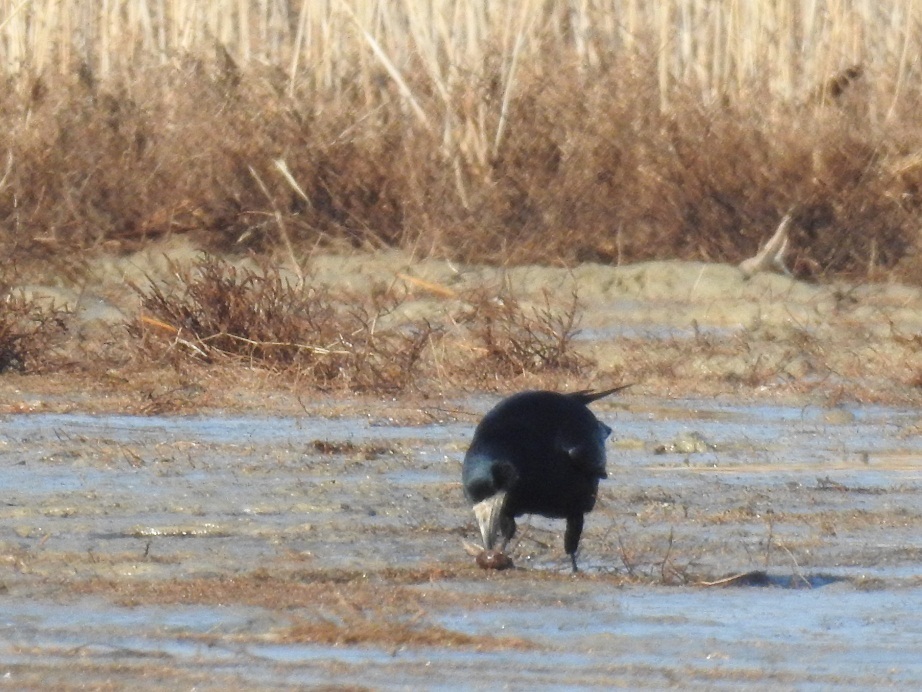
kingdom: Animalia
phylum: Chordata
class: Aves
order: Passeriformes
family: Corvidae
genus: Corvus
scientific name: Corvus frugilegus
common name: Rook
